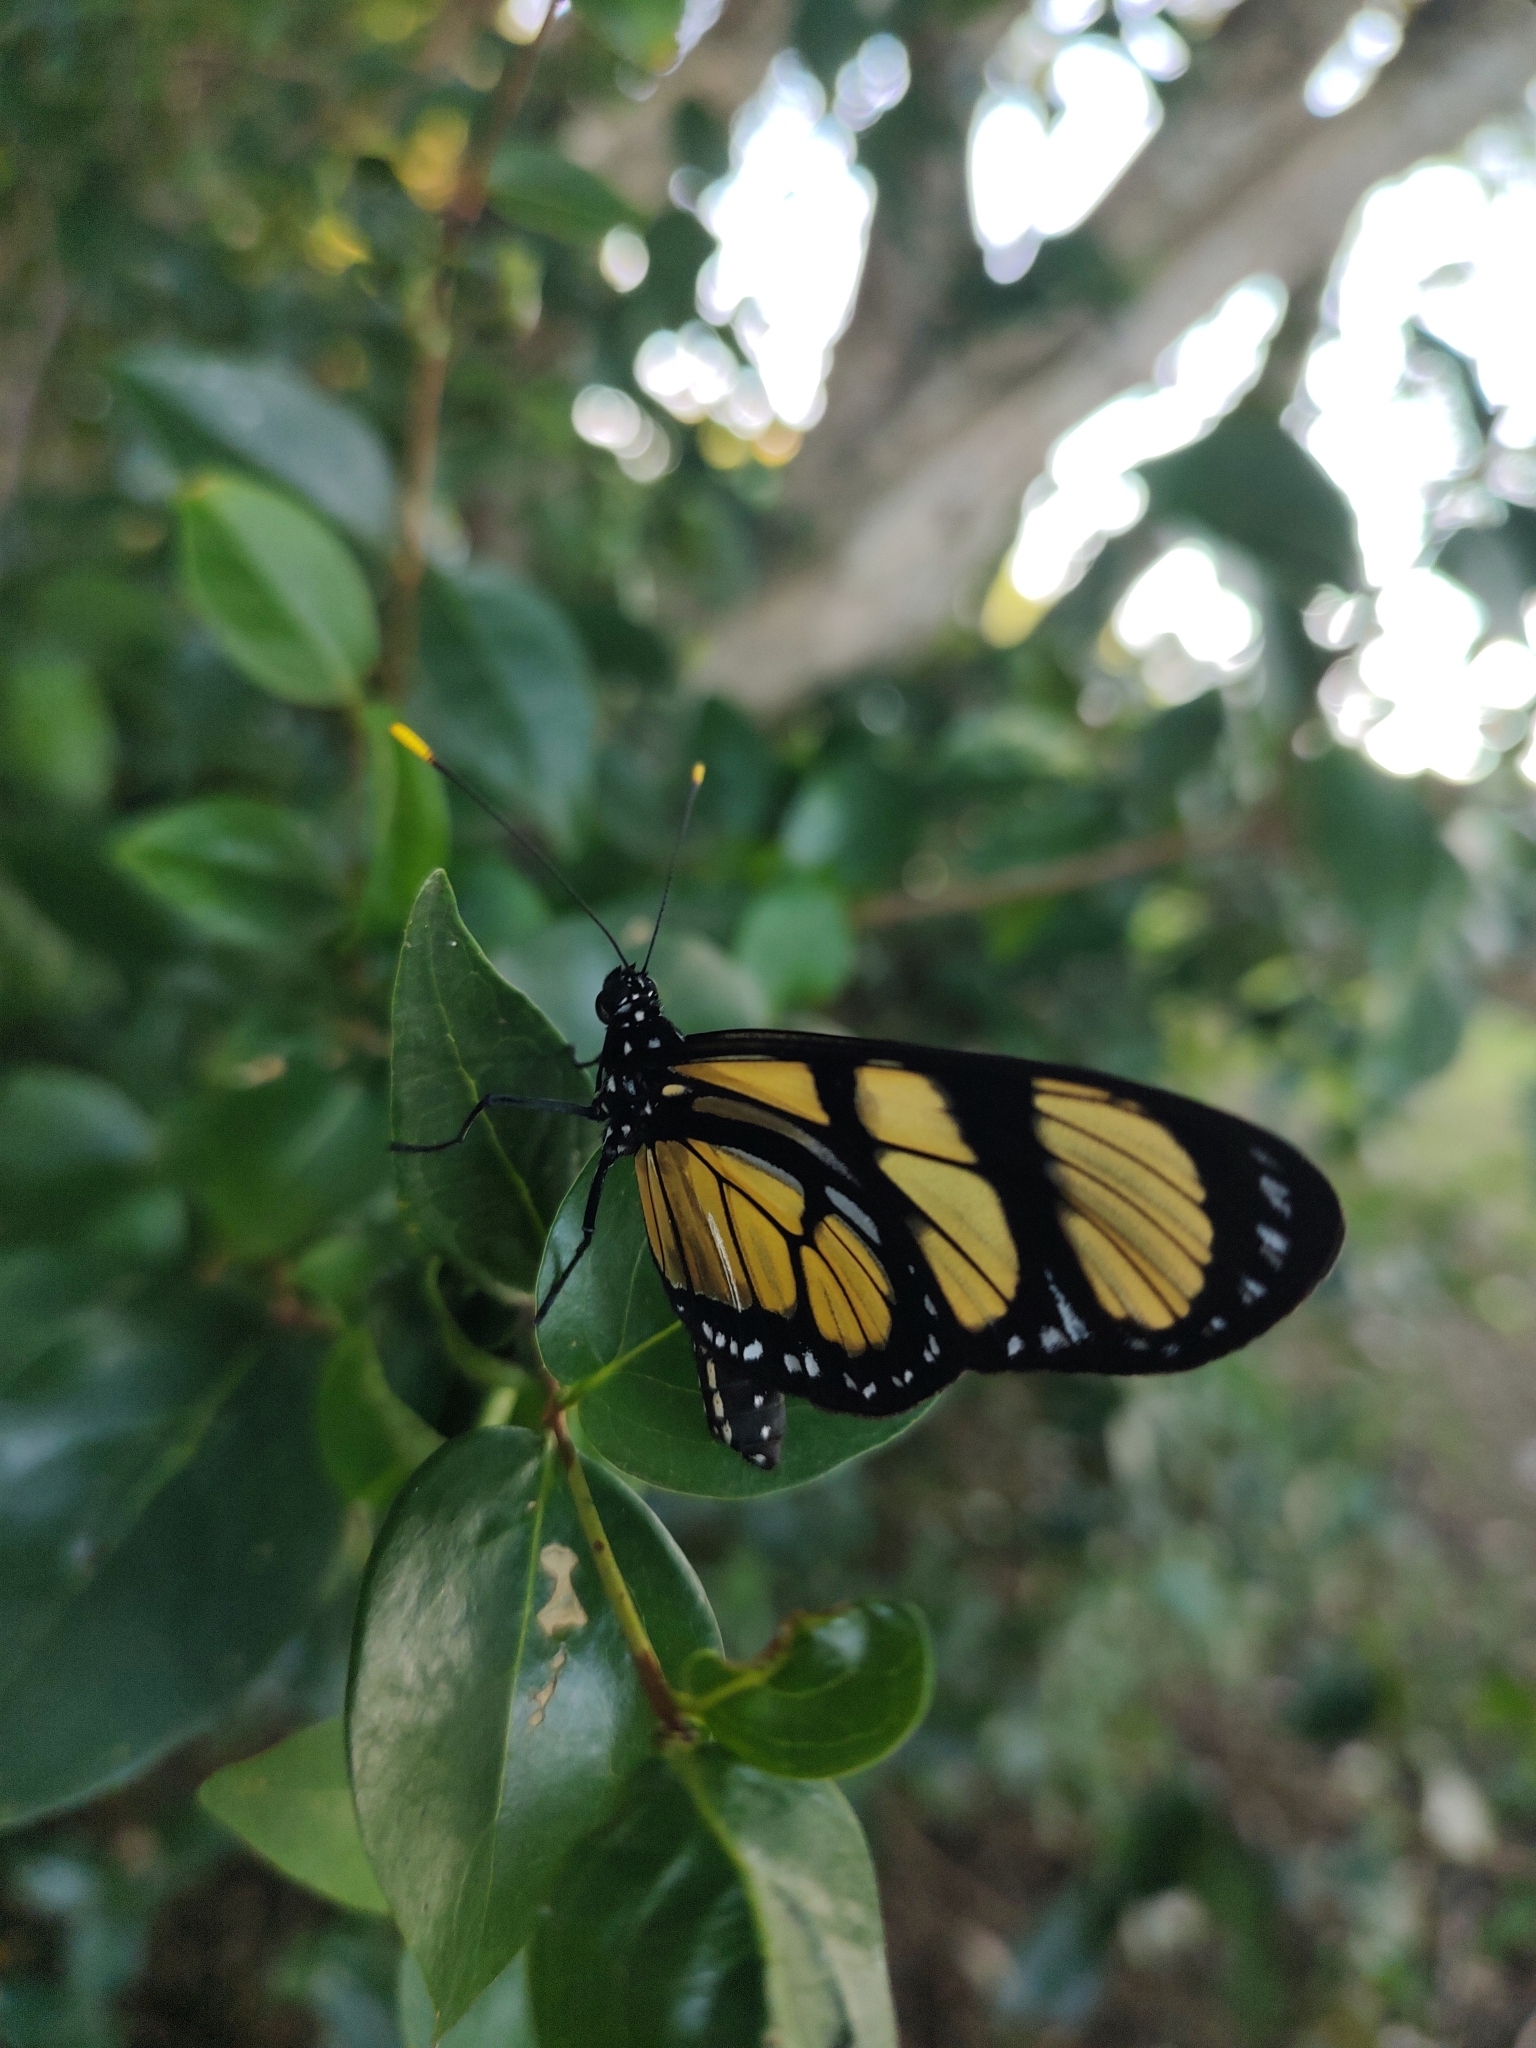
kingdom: Animalia
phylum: Arthropoda
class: Insecta
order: Lepidoptera
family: Nymphalidae
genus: Methona
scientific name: Methona themisto
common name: Themisto amberwing
